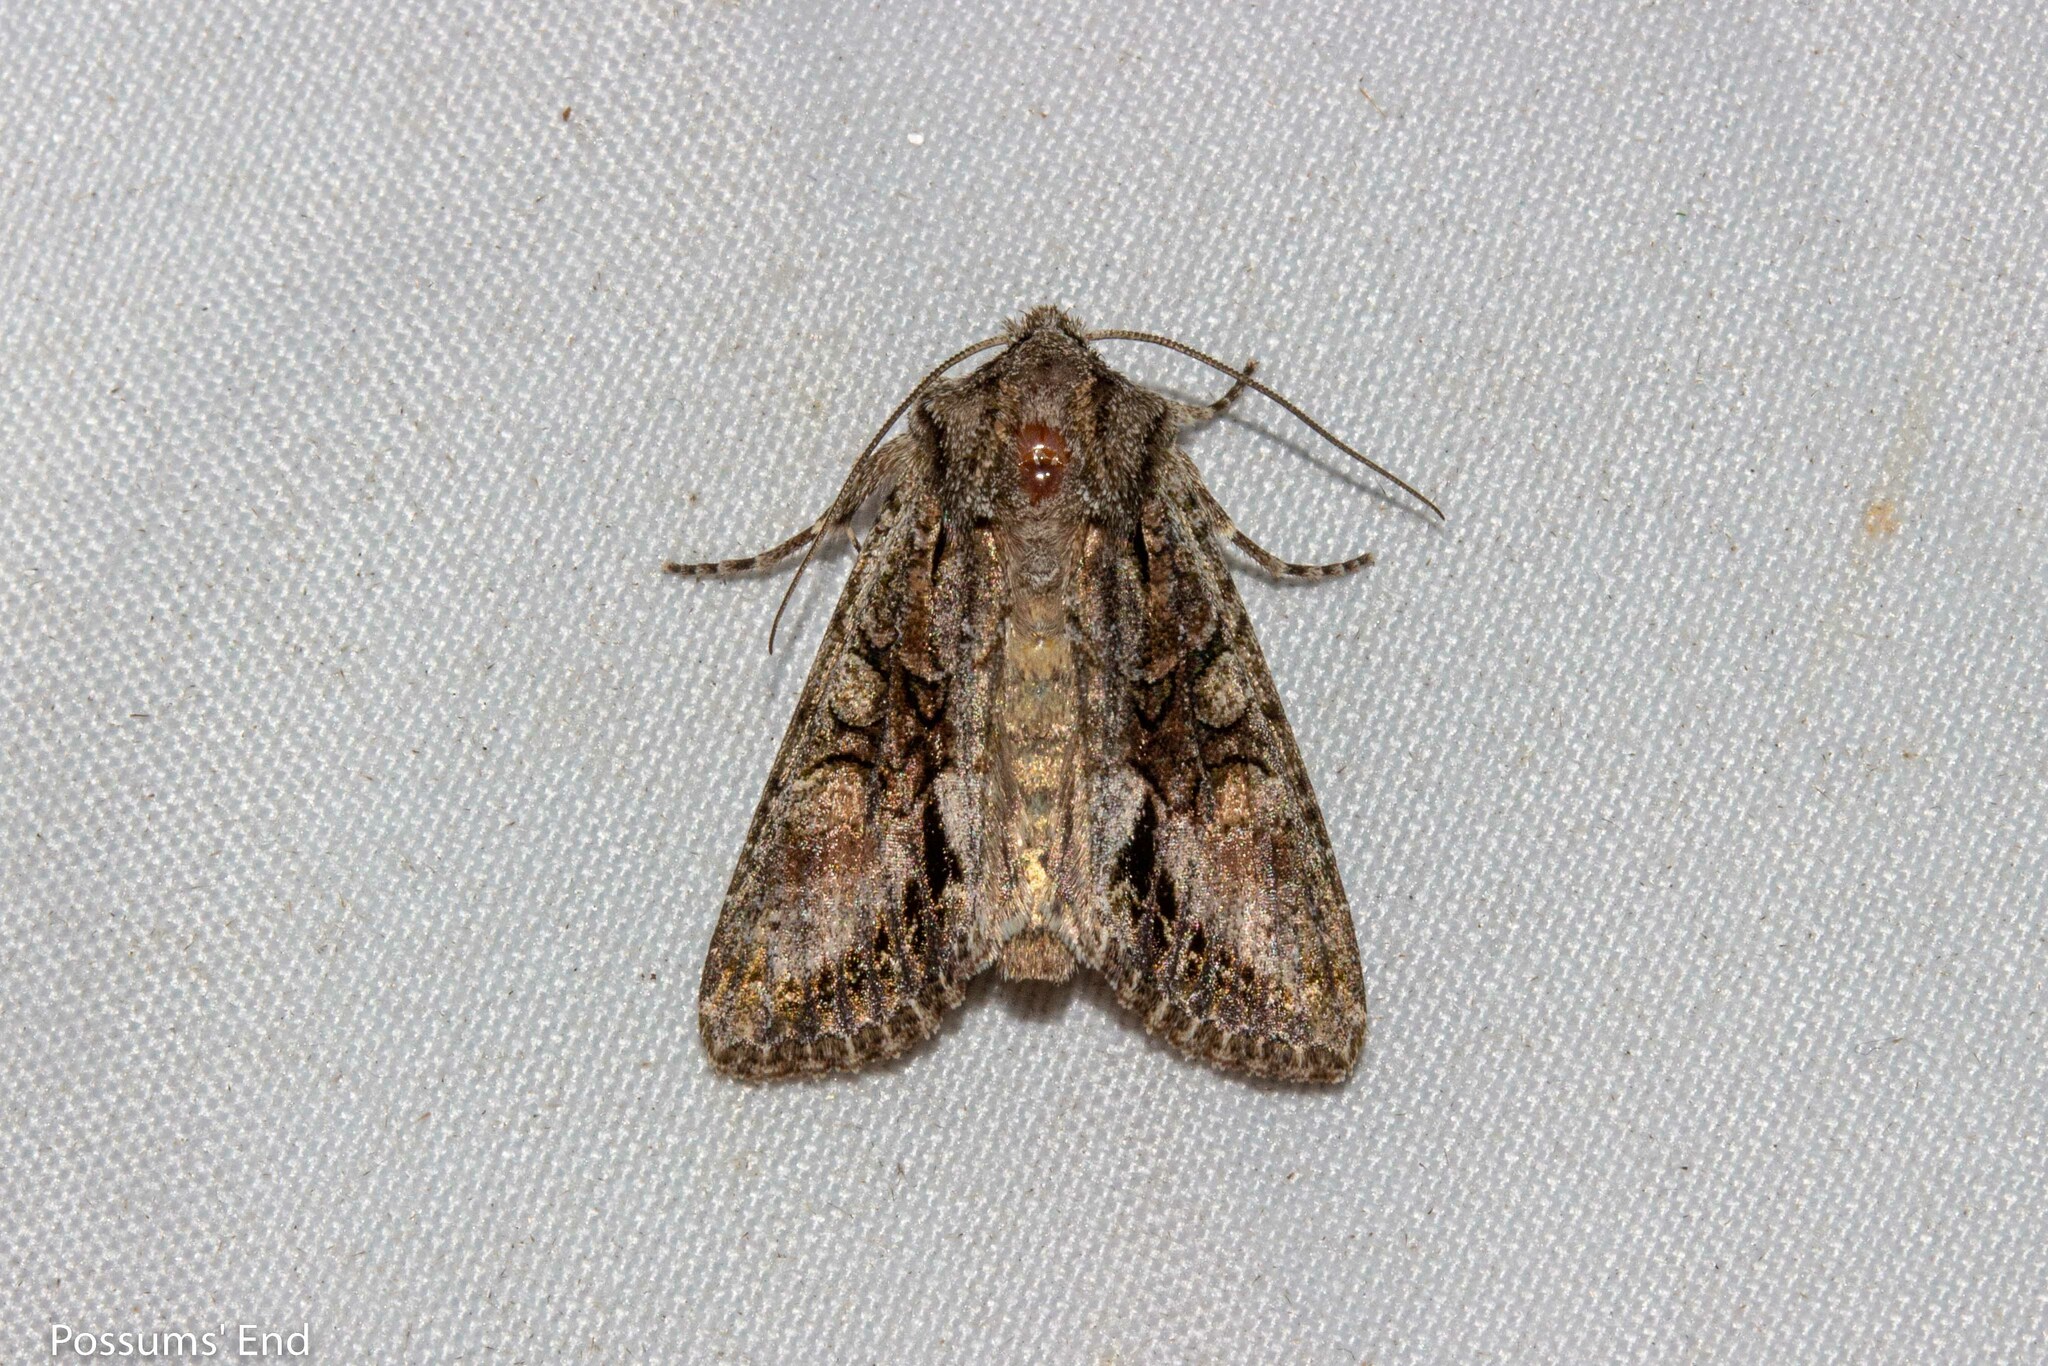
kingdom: Animalia
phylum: Arthropoda
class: Insecta
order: Lepidoptera
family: Noctuidae
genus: Ichneutica
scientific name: Ichneutica mutans
